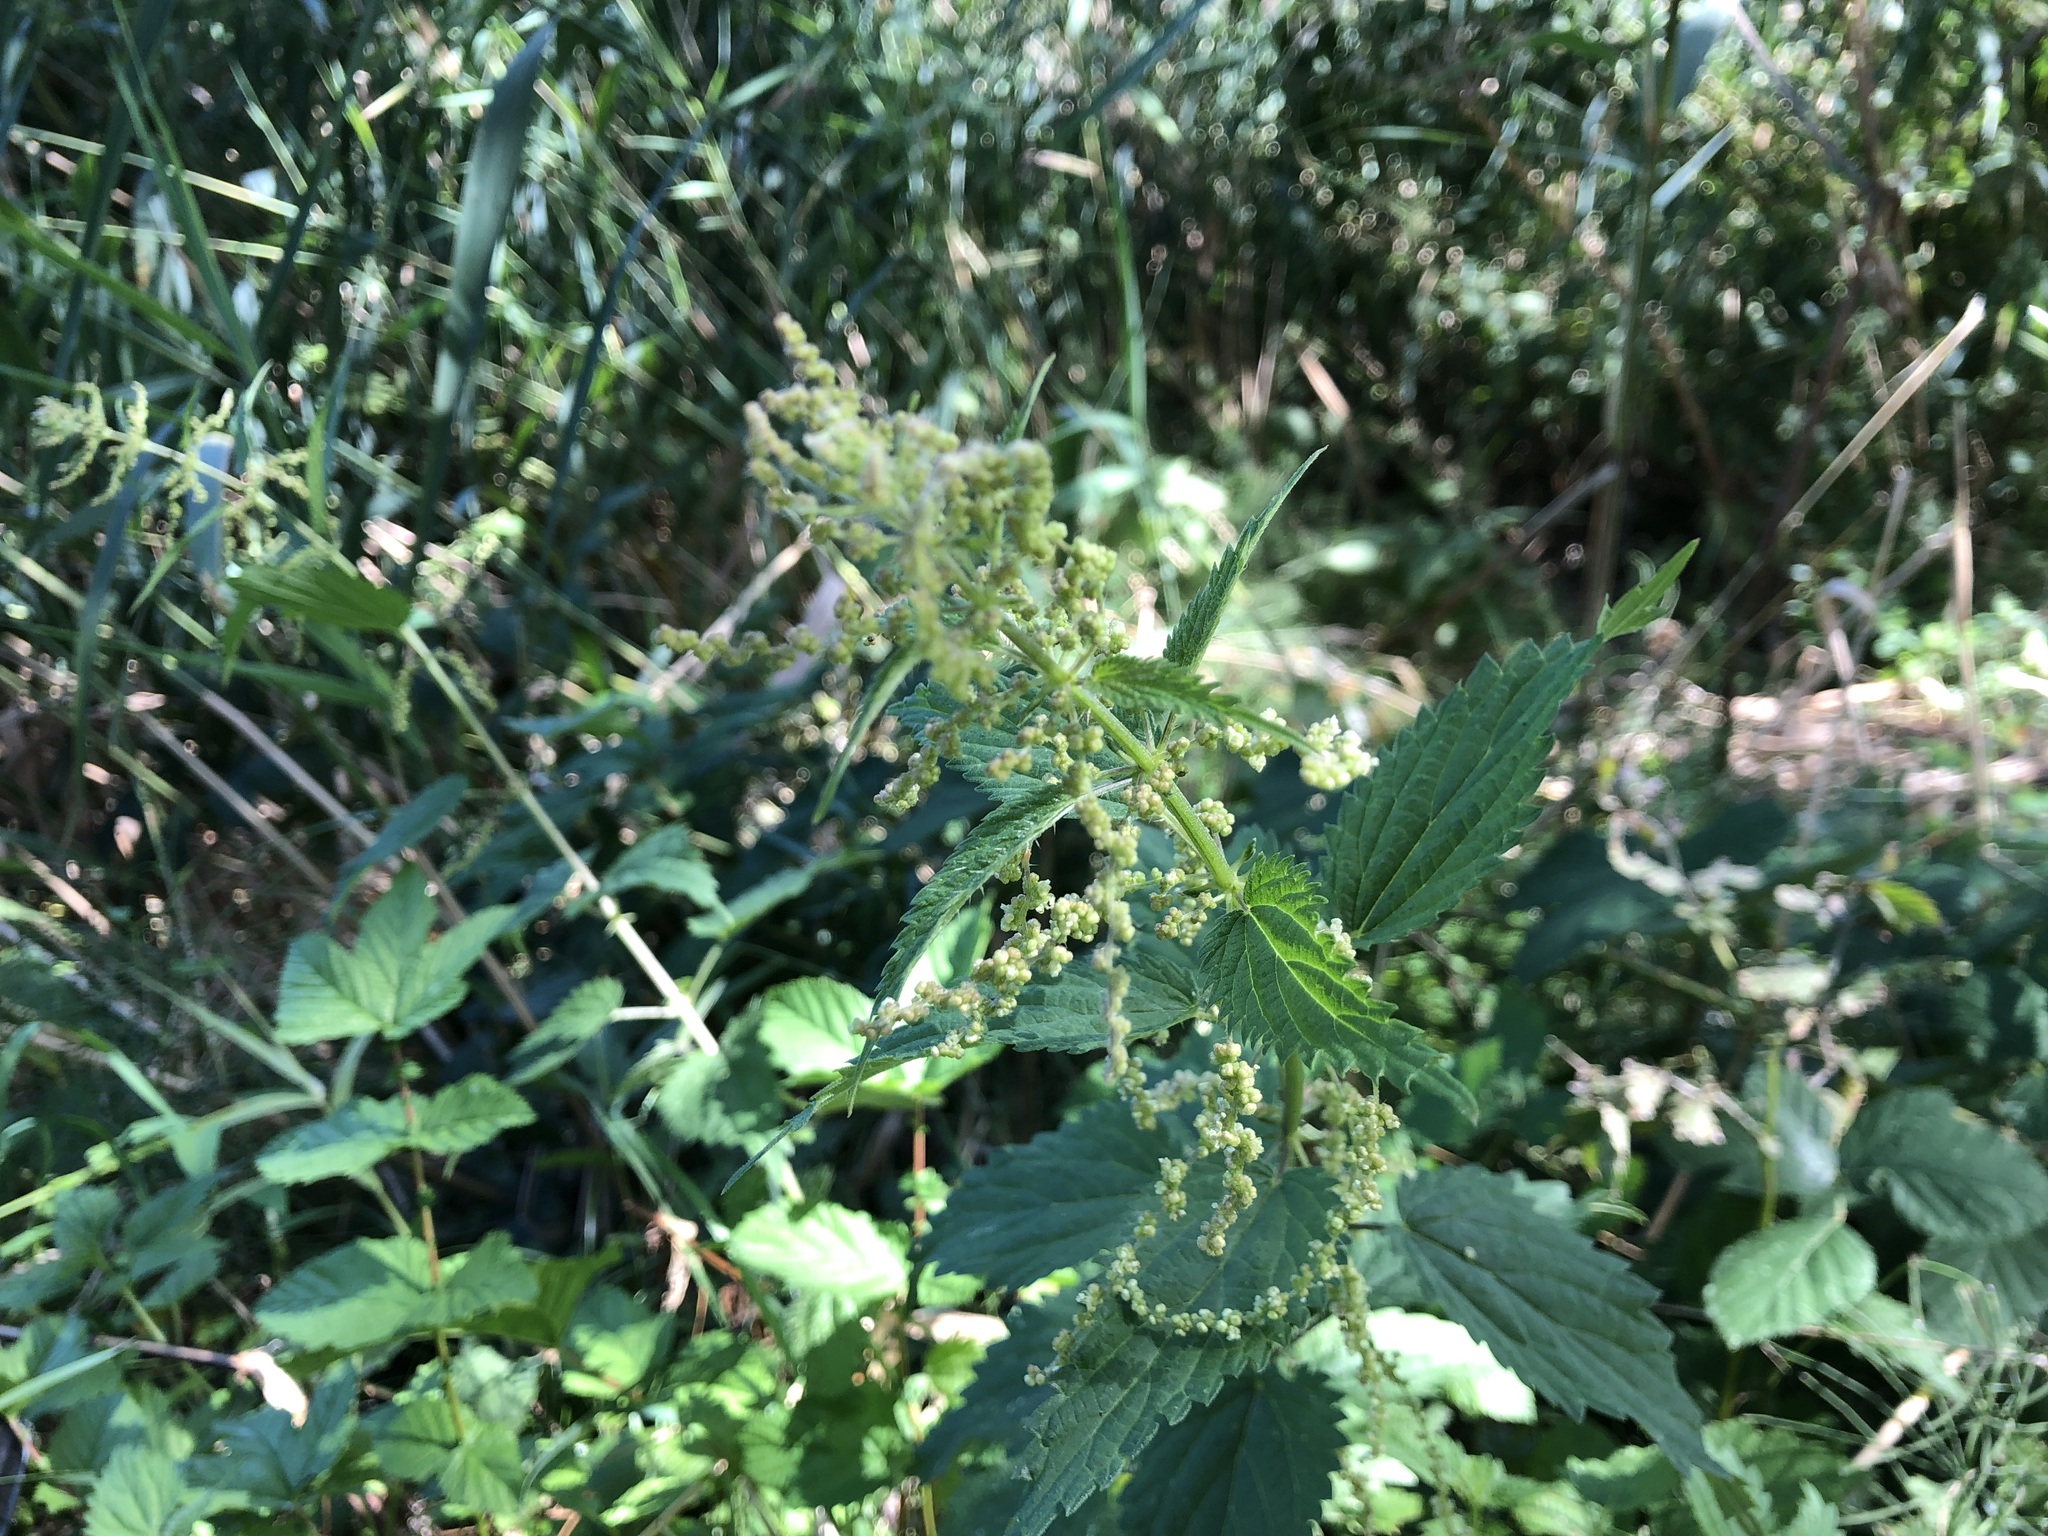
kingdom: Plantae
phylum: Tracheophyta
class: Magnoliopsida
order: Rosales
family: Urticaceae
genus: Urtica
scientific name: Urtica dioica
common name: Common nettle
